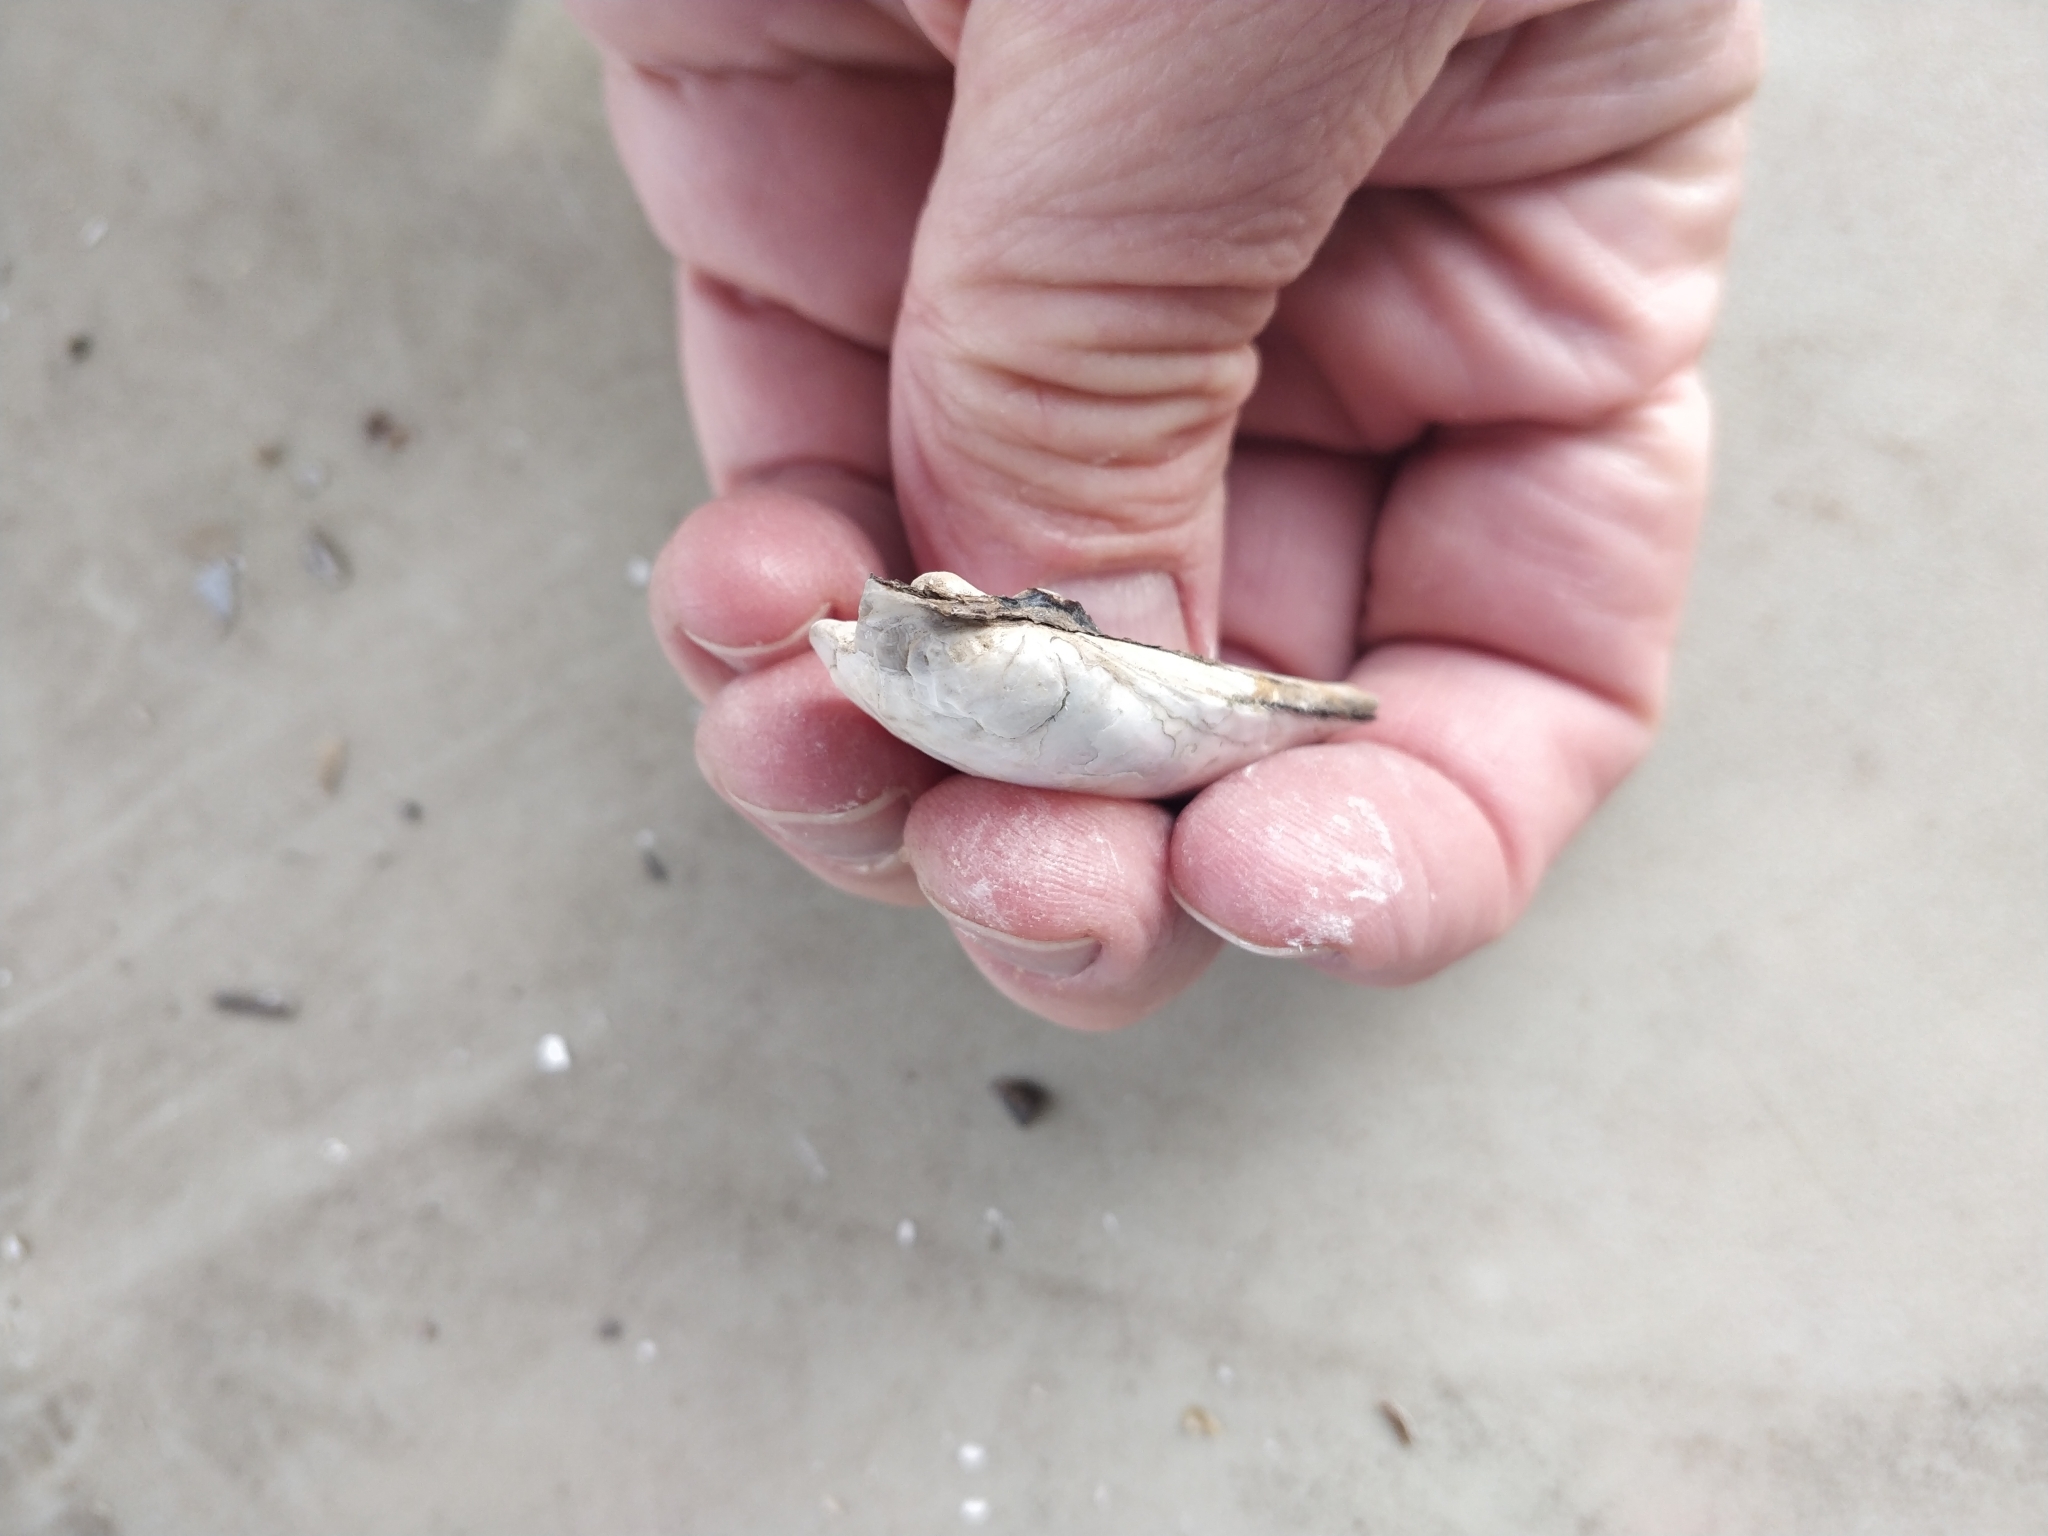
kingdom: Animalia
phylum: Mollusca
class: Bivalvia
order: Unionida
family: Unionidae
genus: Lampsilis
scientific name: Lampsilis siliquoidea
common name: Fatmucket
